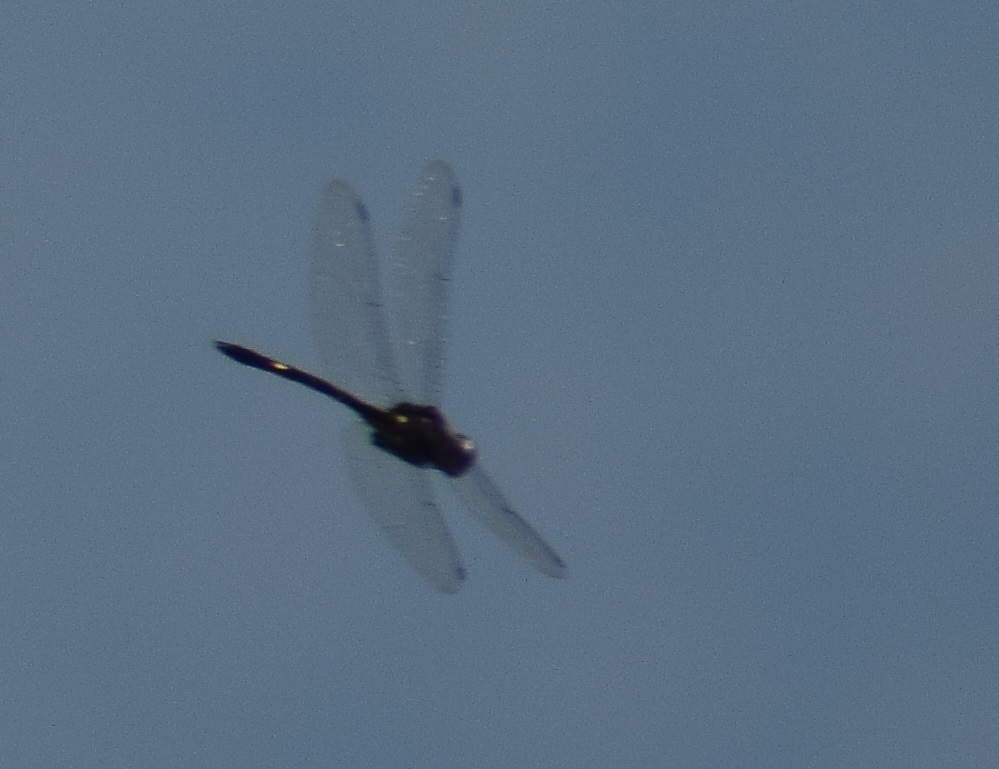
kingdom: Animalia
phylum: Arthropoda
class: Insecta
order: Odonata
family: Libellulidae
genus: Zygonyx
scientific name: Zygonyx iris
